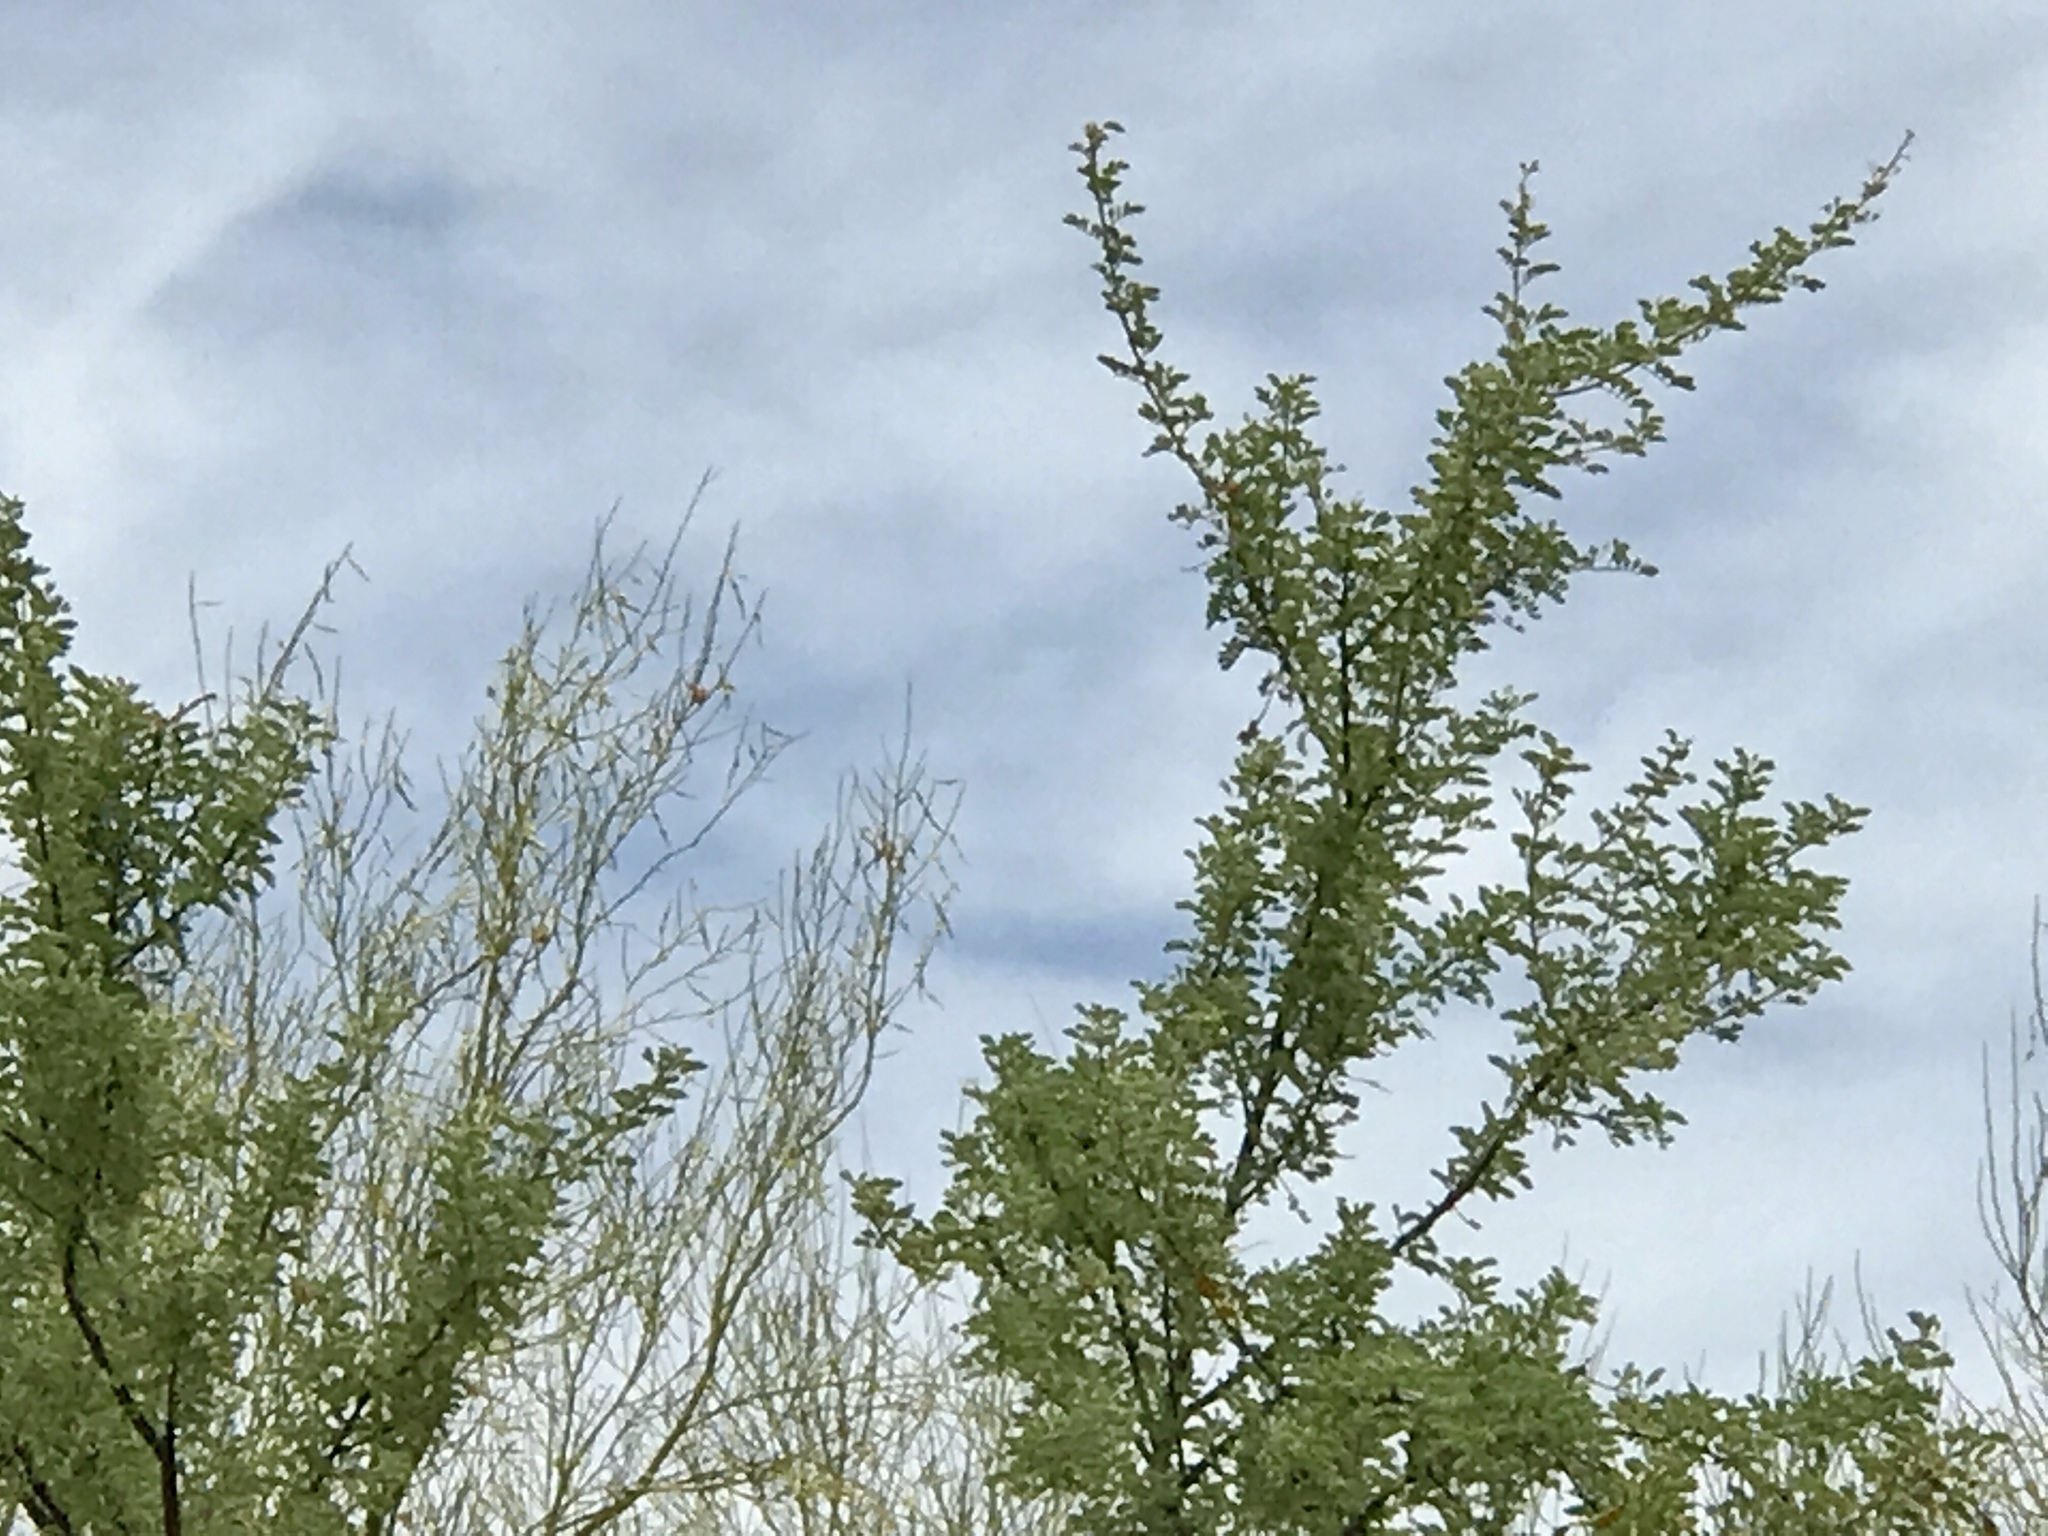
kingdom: Plantae
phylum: Tracheophyta
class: Magnoliopsida
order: Fabales
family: Fabaceae
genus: Senegalia
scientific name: Senegalia greggii
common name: Texas-mimosa
